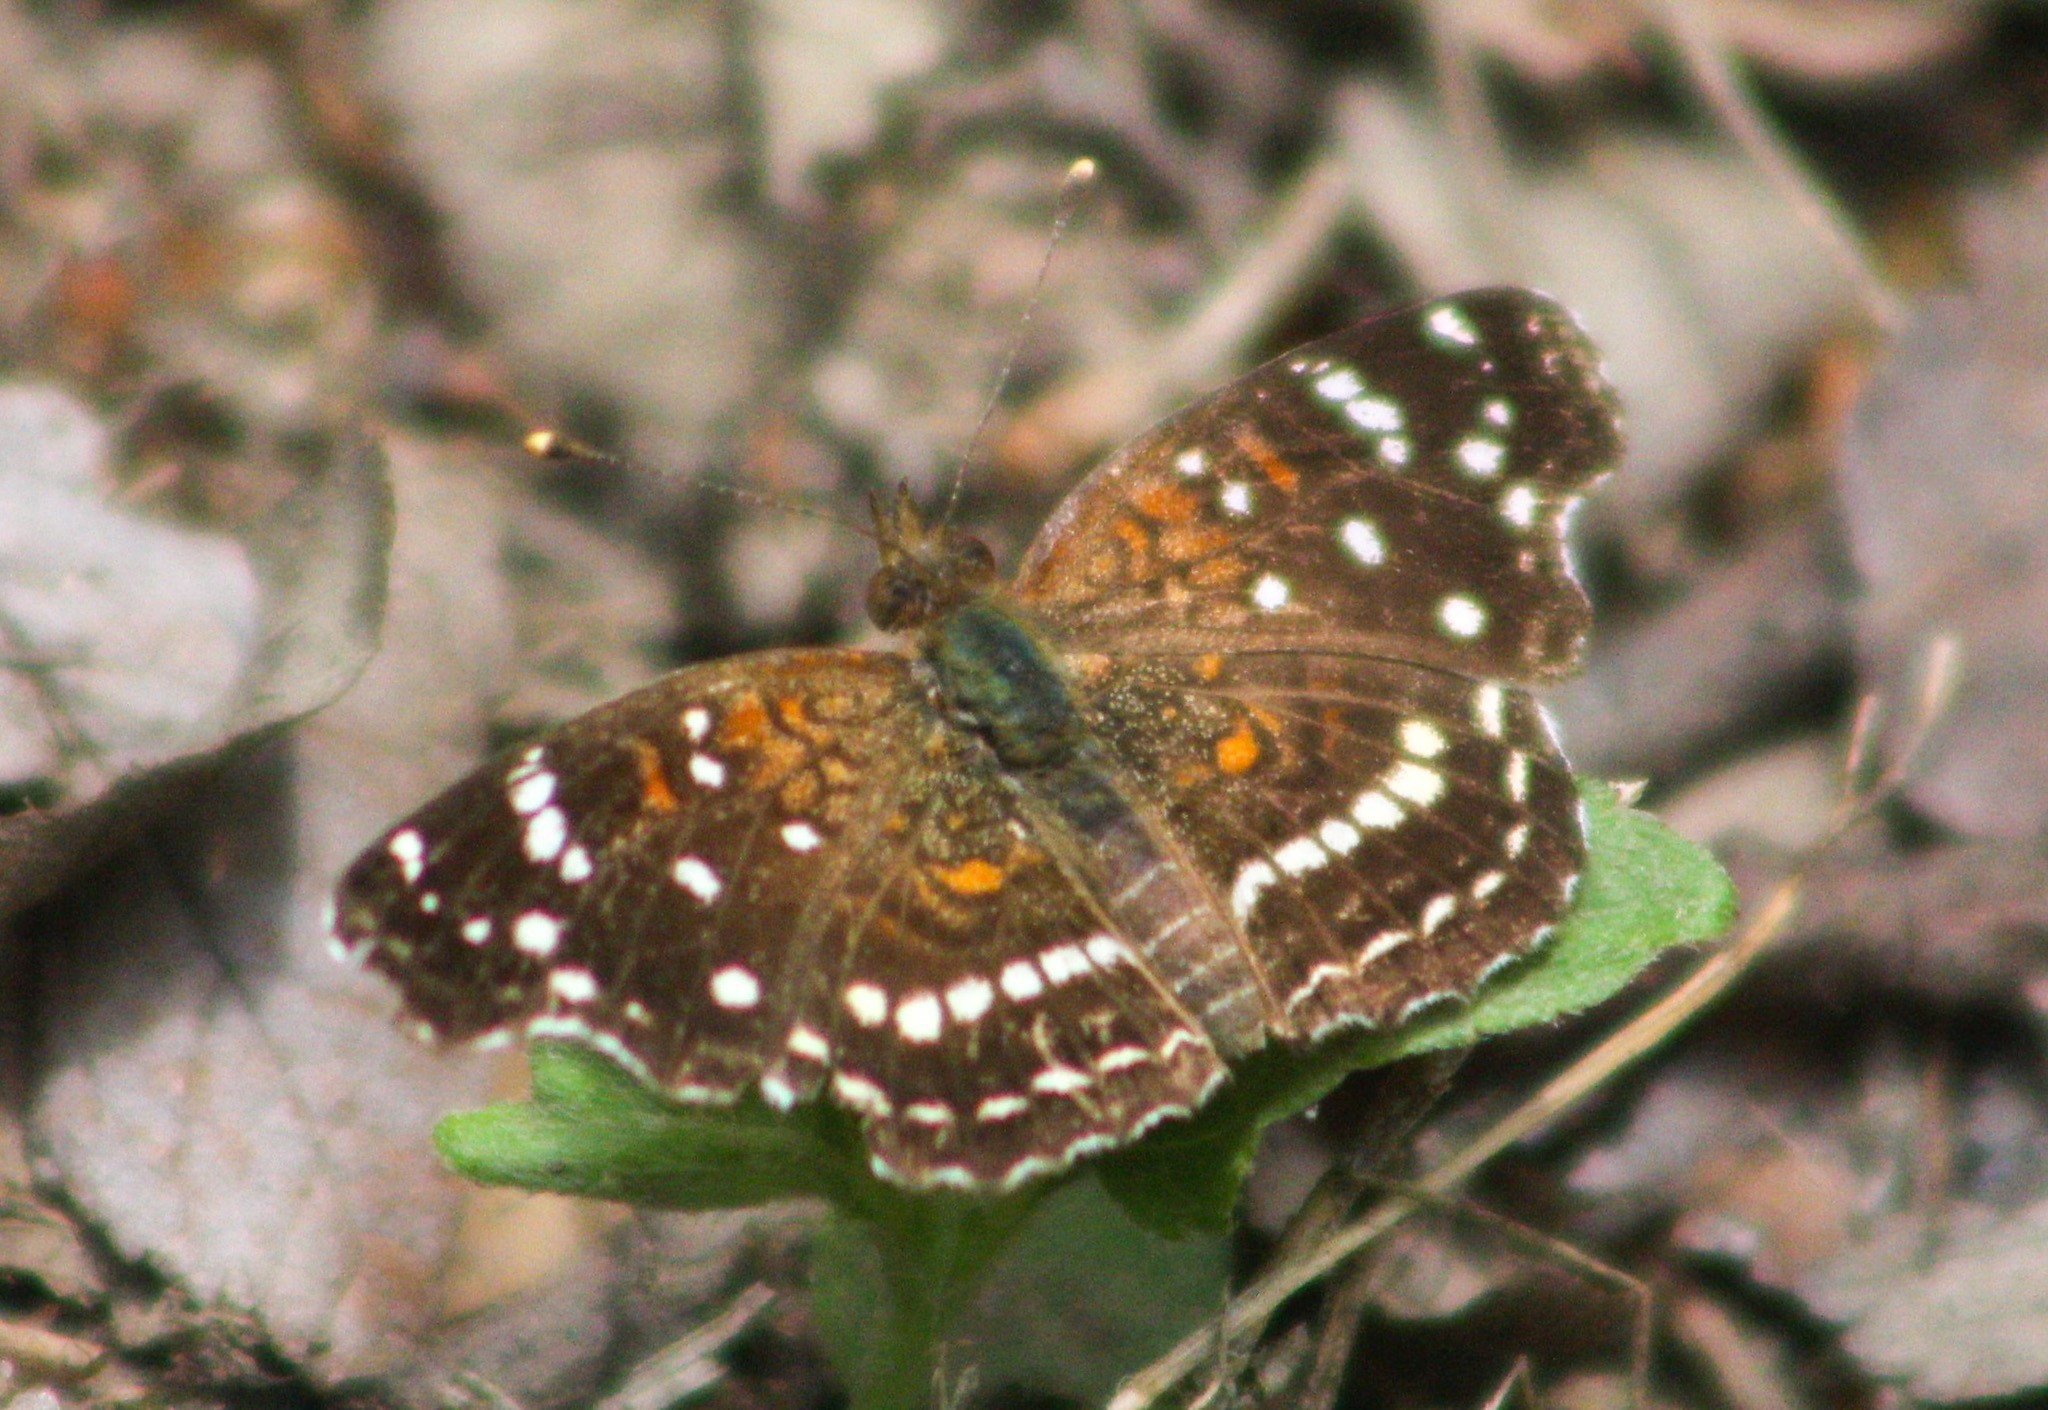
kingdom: Animalia
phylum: Arthropoda
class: Insecta
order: Lepidoptera
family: Nymphalidae
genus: Anthanassa
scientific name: Anthanassa texana
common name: Texan crescent
